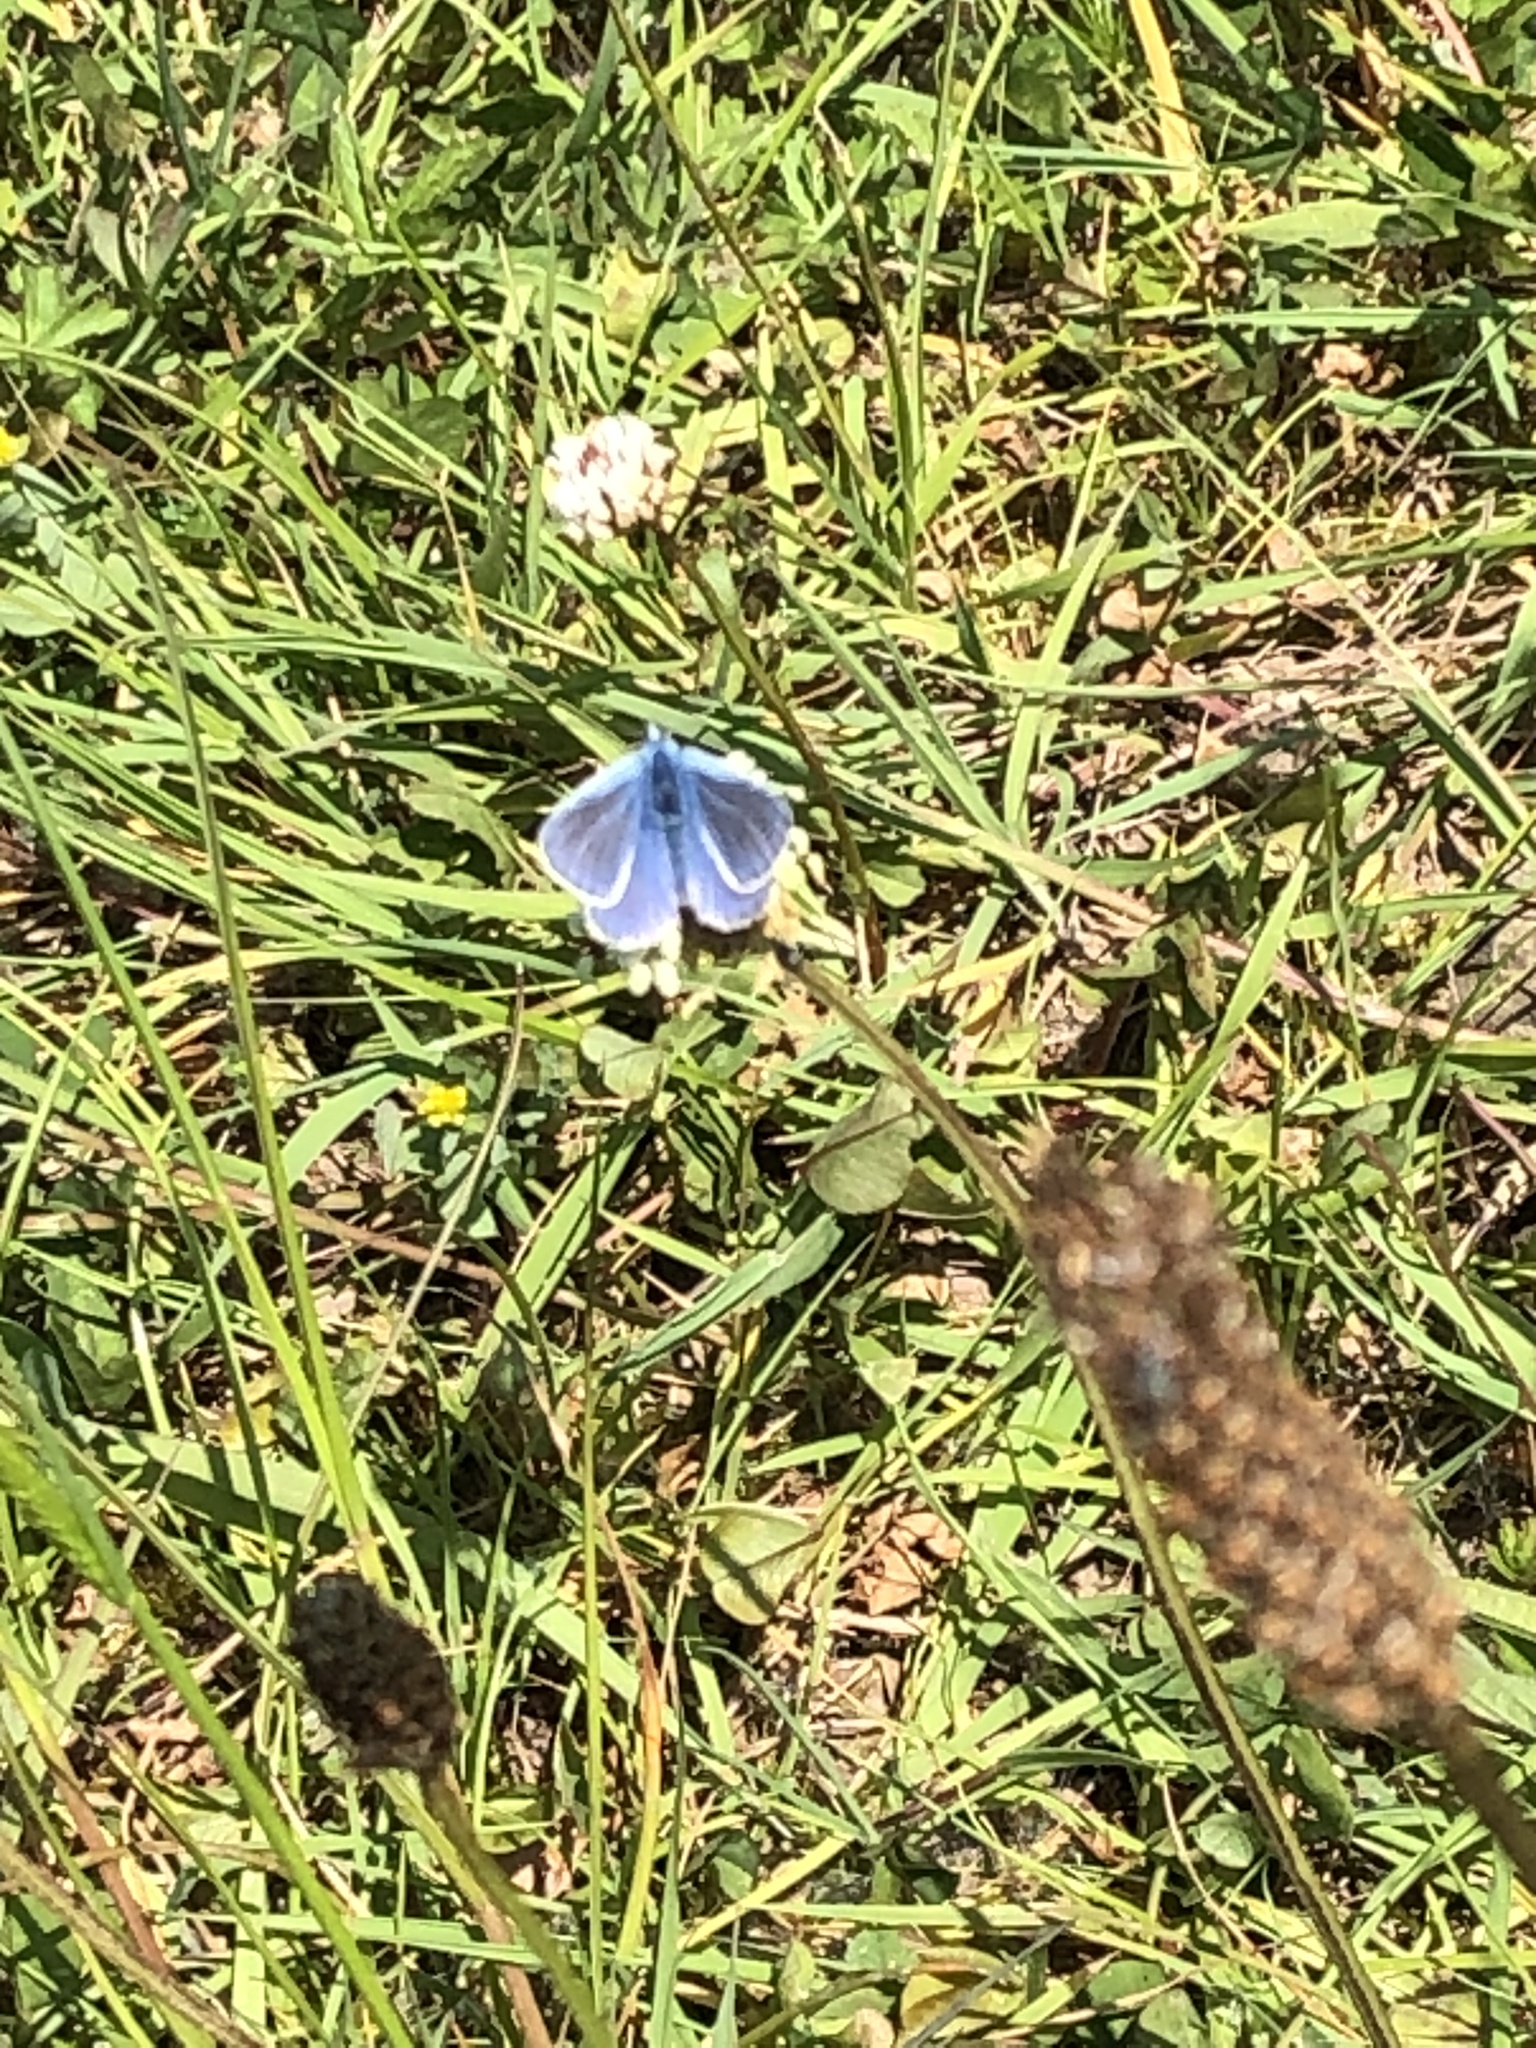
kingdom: Animalia
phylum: Arthropoda
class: Insecta
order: Lepidoptera
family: Lycaenidae
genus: Polyommatus
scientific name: Polyommatus icarus
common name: Common blue
